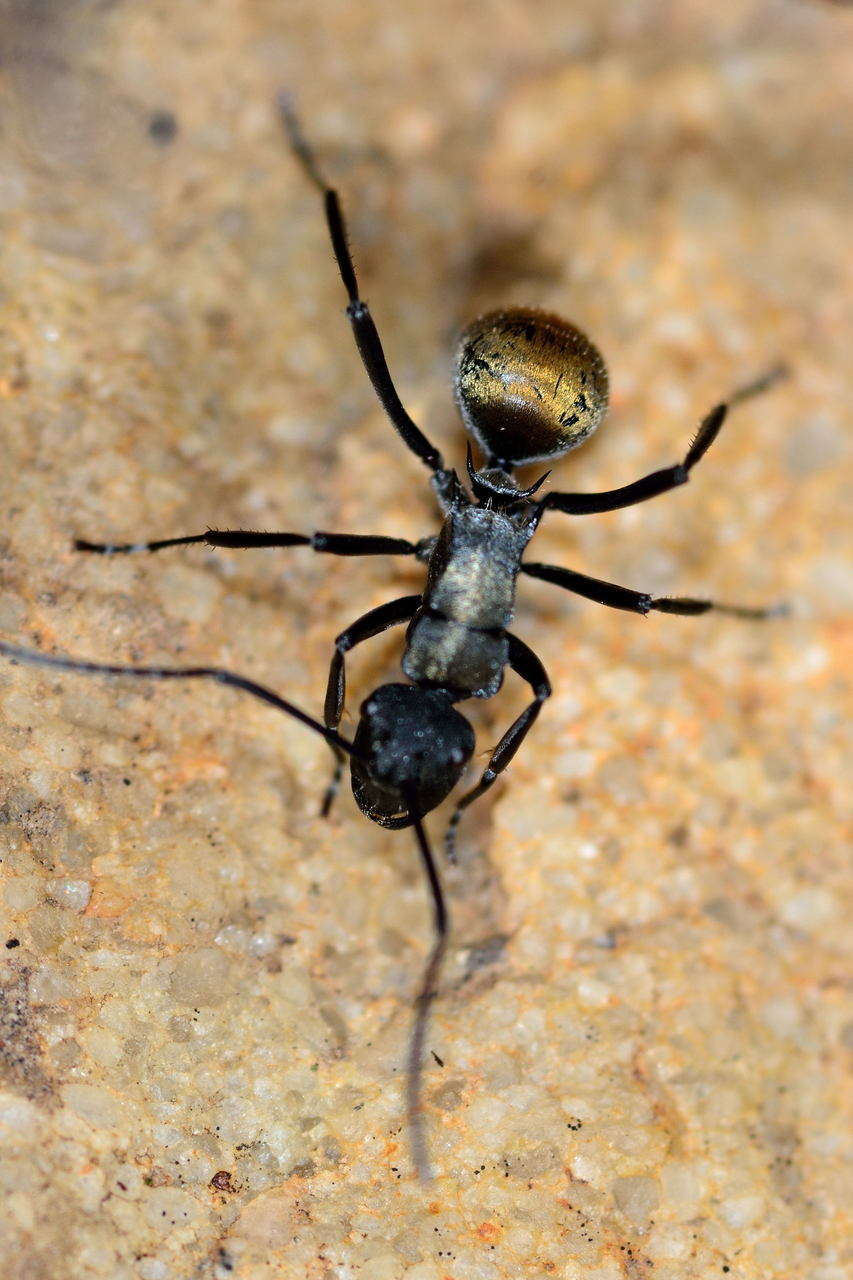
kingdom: Animalia
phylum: Arthropoda
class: Insecta
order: Hymenoptera
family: Formicidae
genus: Polyrhachis
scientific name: Polyrhachis ammon
